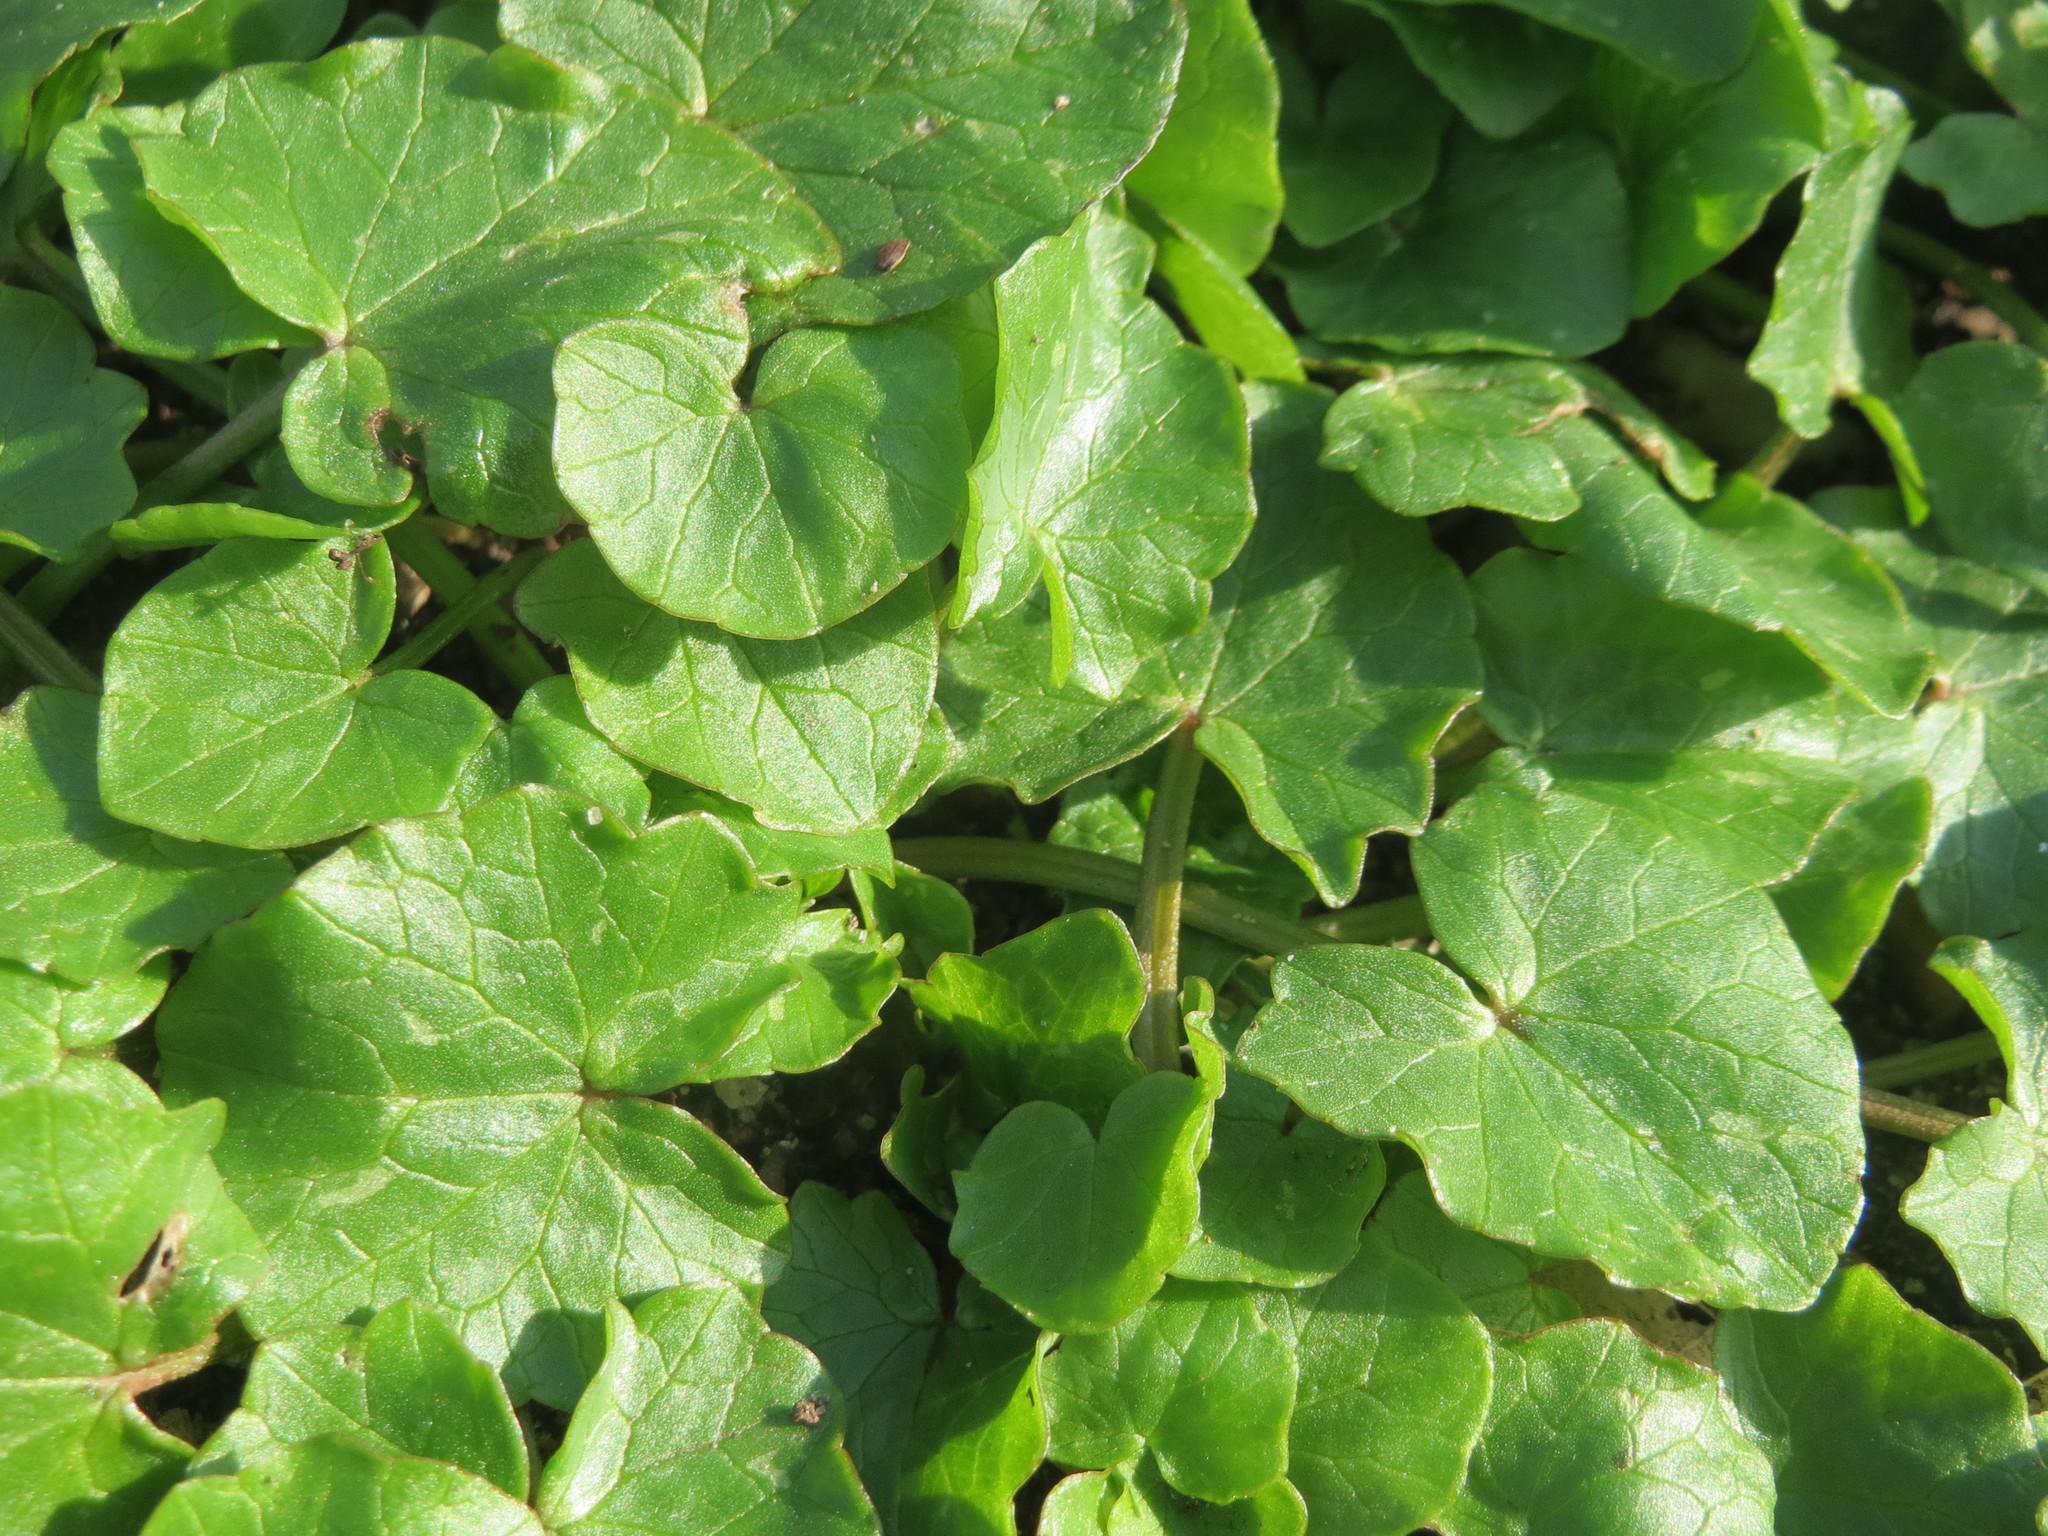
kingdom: Plantae
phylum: Tracheophyta
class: Magnoliopsida
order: Ranunculales
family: Ranunculaceae
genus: Ficaria
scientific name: Ficaria verna
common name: Lesser celandine
